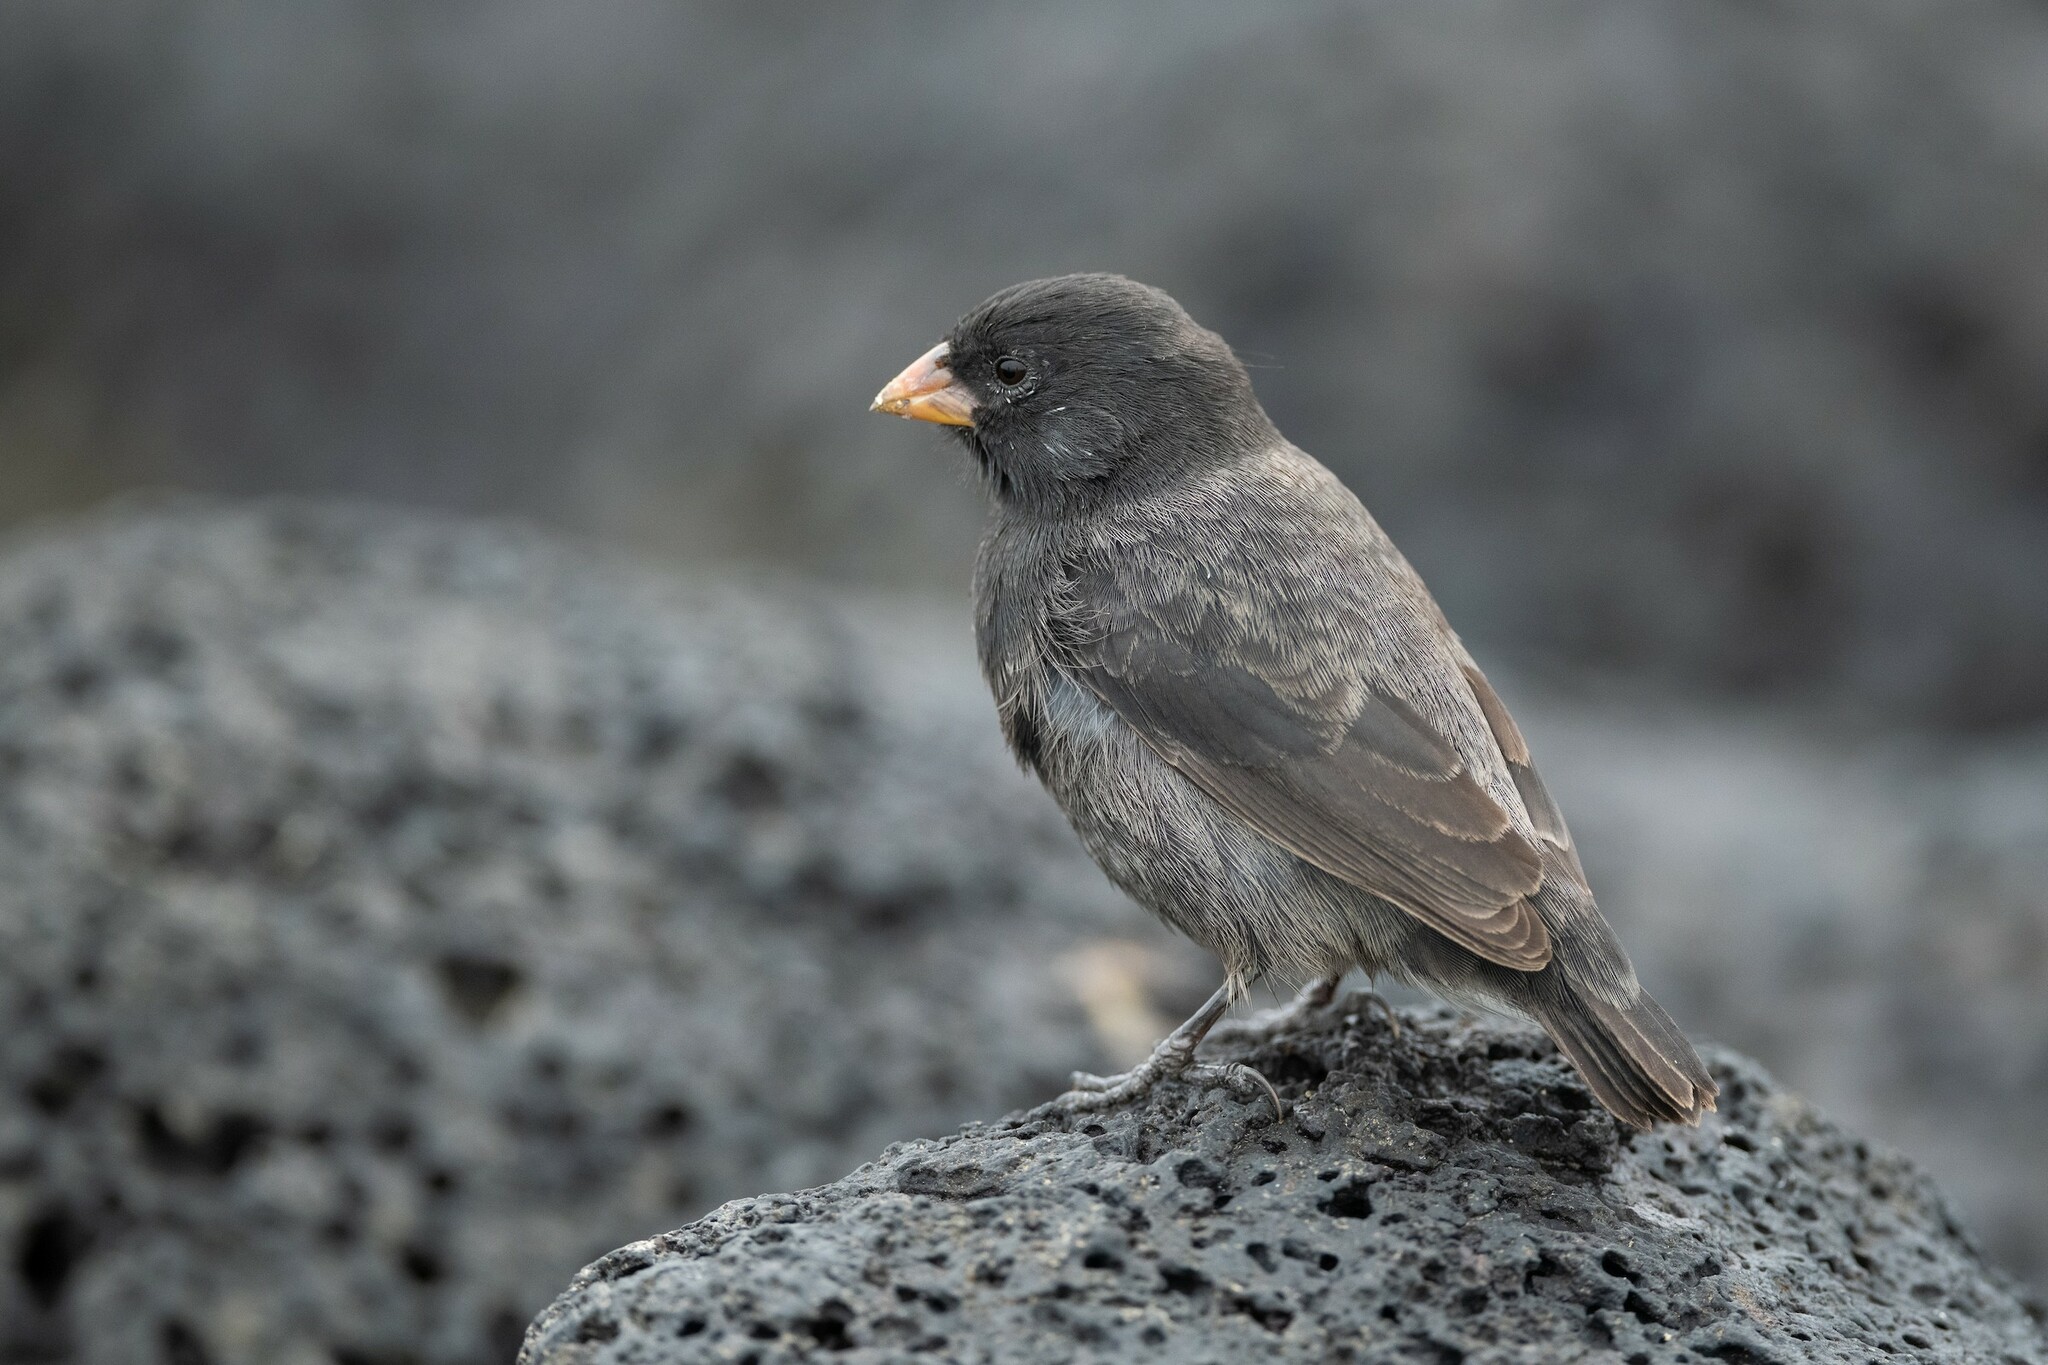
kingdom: Animalia
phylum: Chordata
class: Aves
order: Passeriformes
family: Thraupidae
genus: Geospiza
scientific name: Geospiza fuliginosa
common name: Small ground finch
